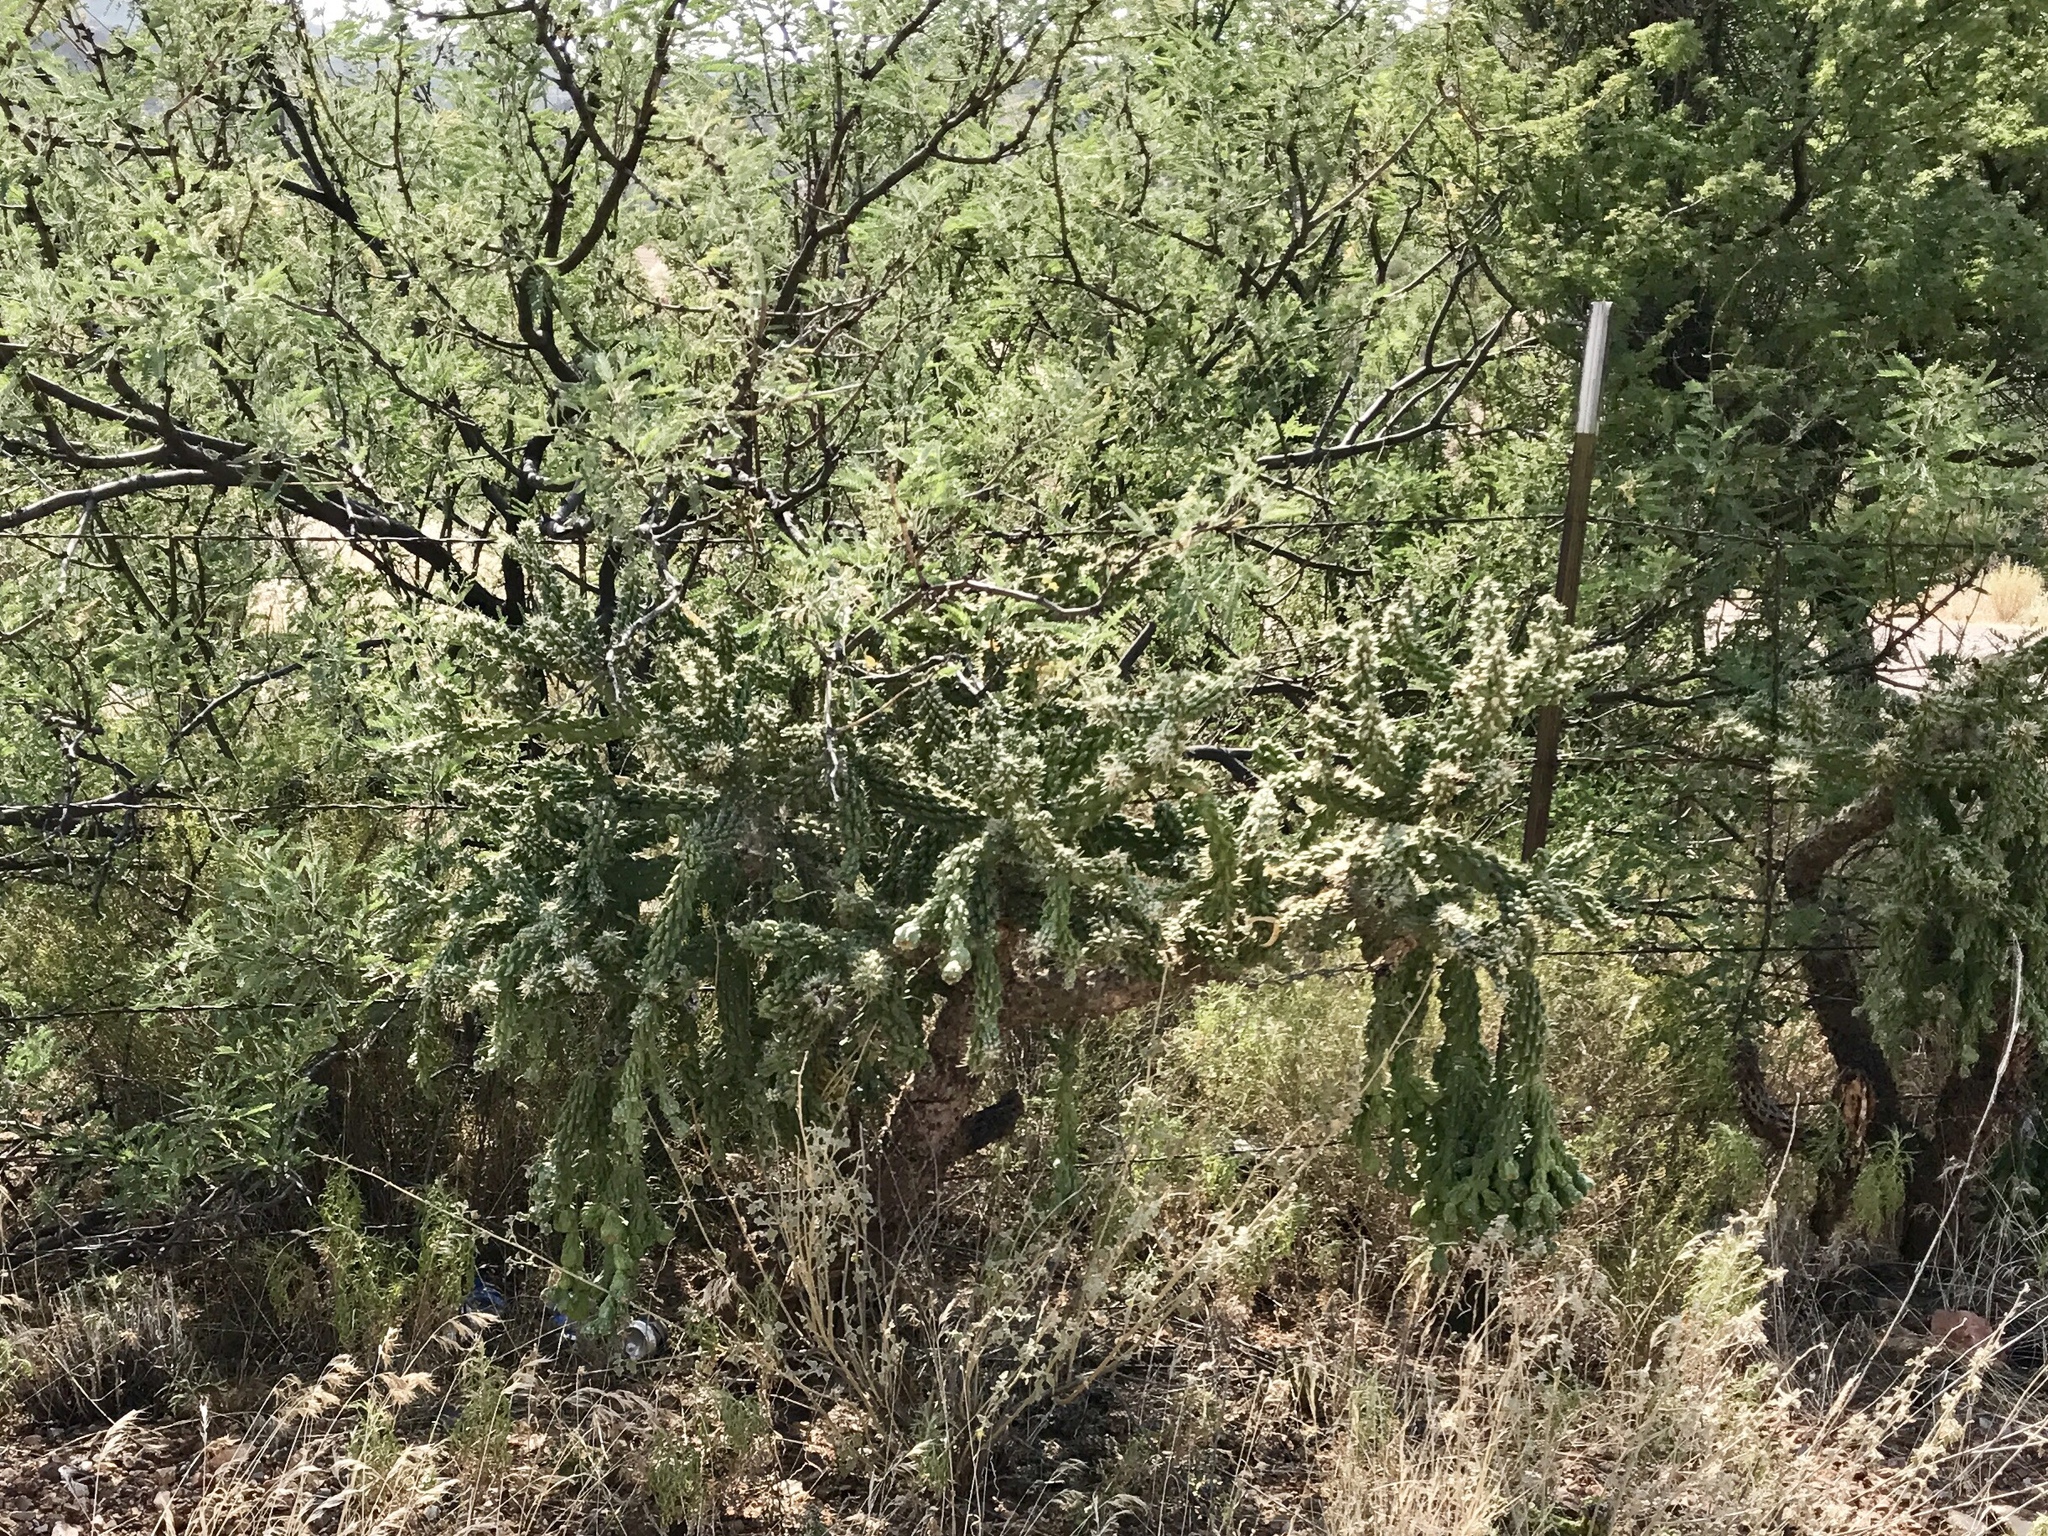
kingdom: Plantae
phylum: Tracheophyta
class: Magnoliopsida
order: Caryophyllales
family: Cactaceae
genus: Cylindropuntia
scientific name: Cylindropuntia fulgida
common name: Jumping cholla
